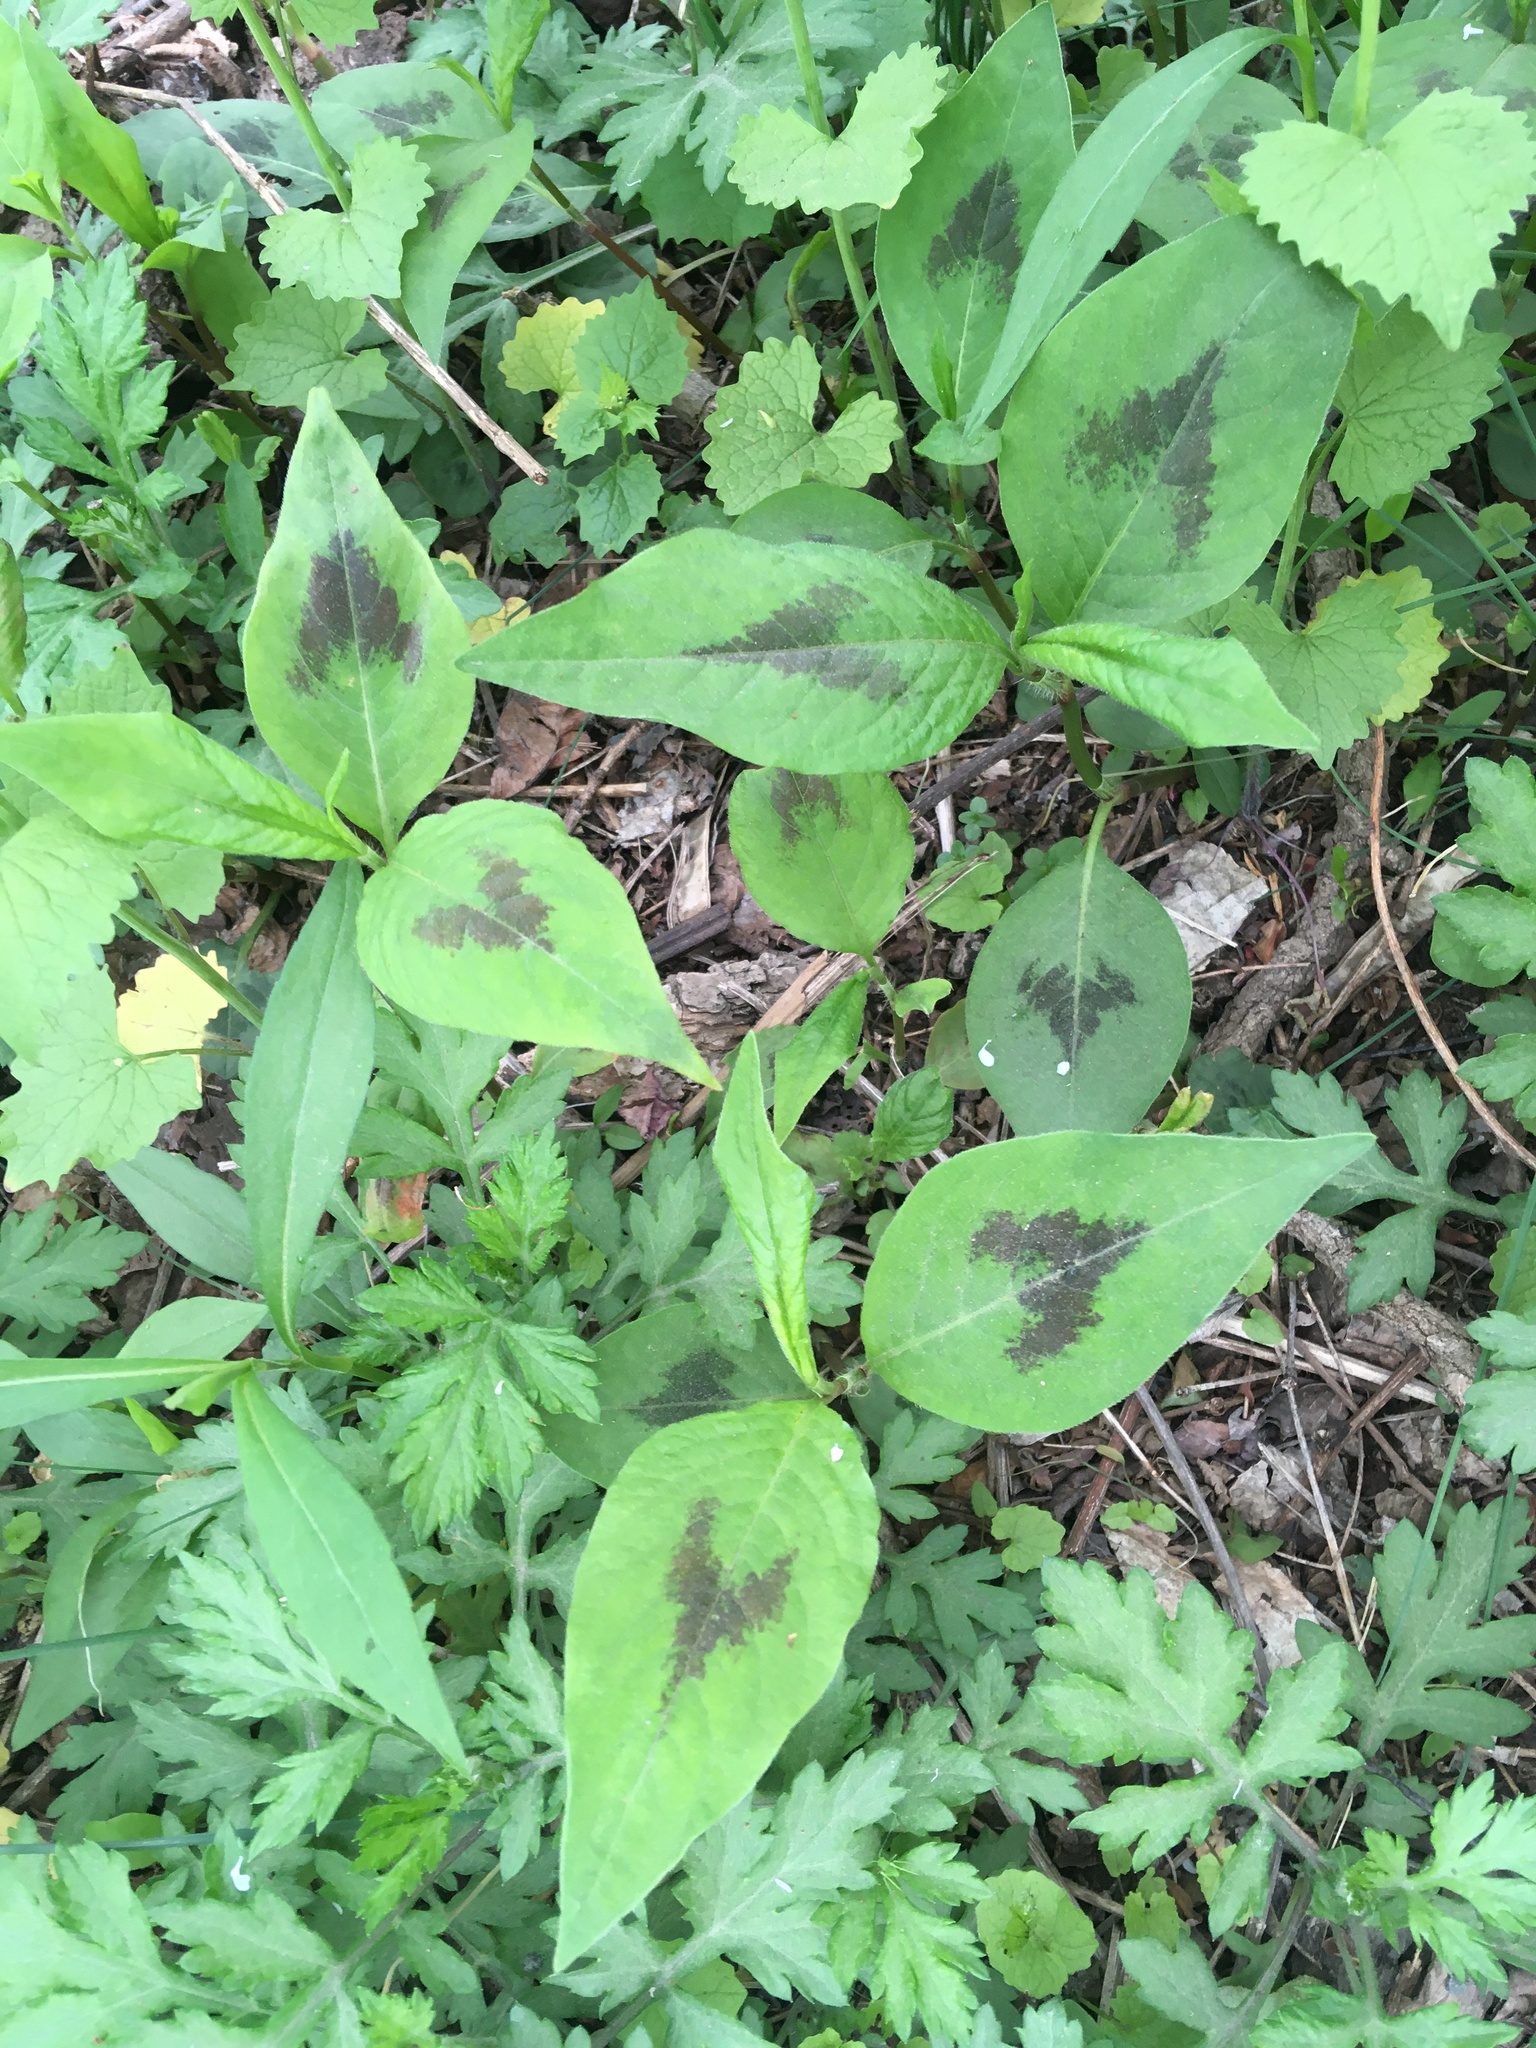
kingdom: Plantae
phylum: Tracheophyta
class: Magnoliopsida
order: Caryophyllales
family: Polygonaceae
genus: Persicaria
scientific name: Persicaria virginiana
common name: Jumpseed
